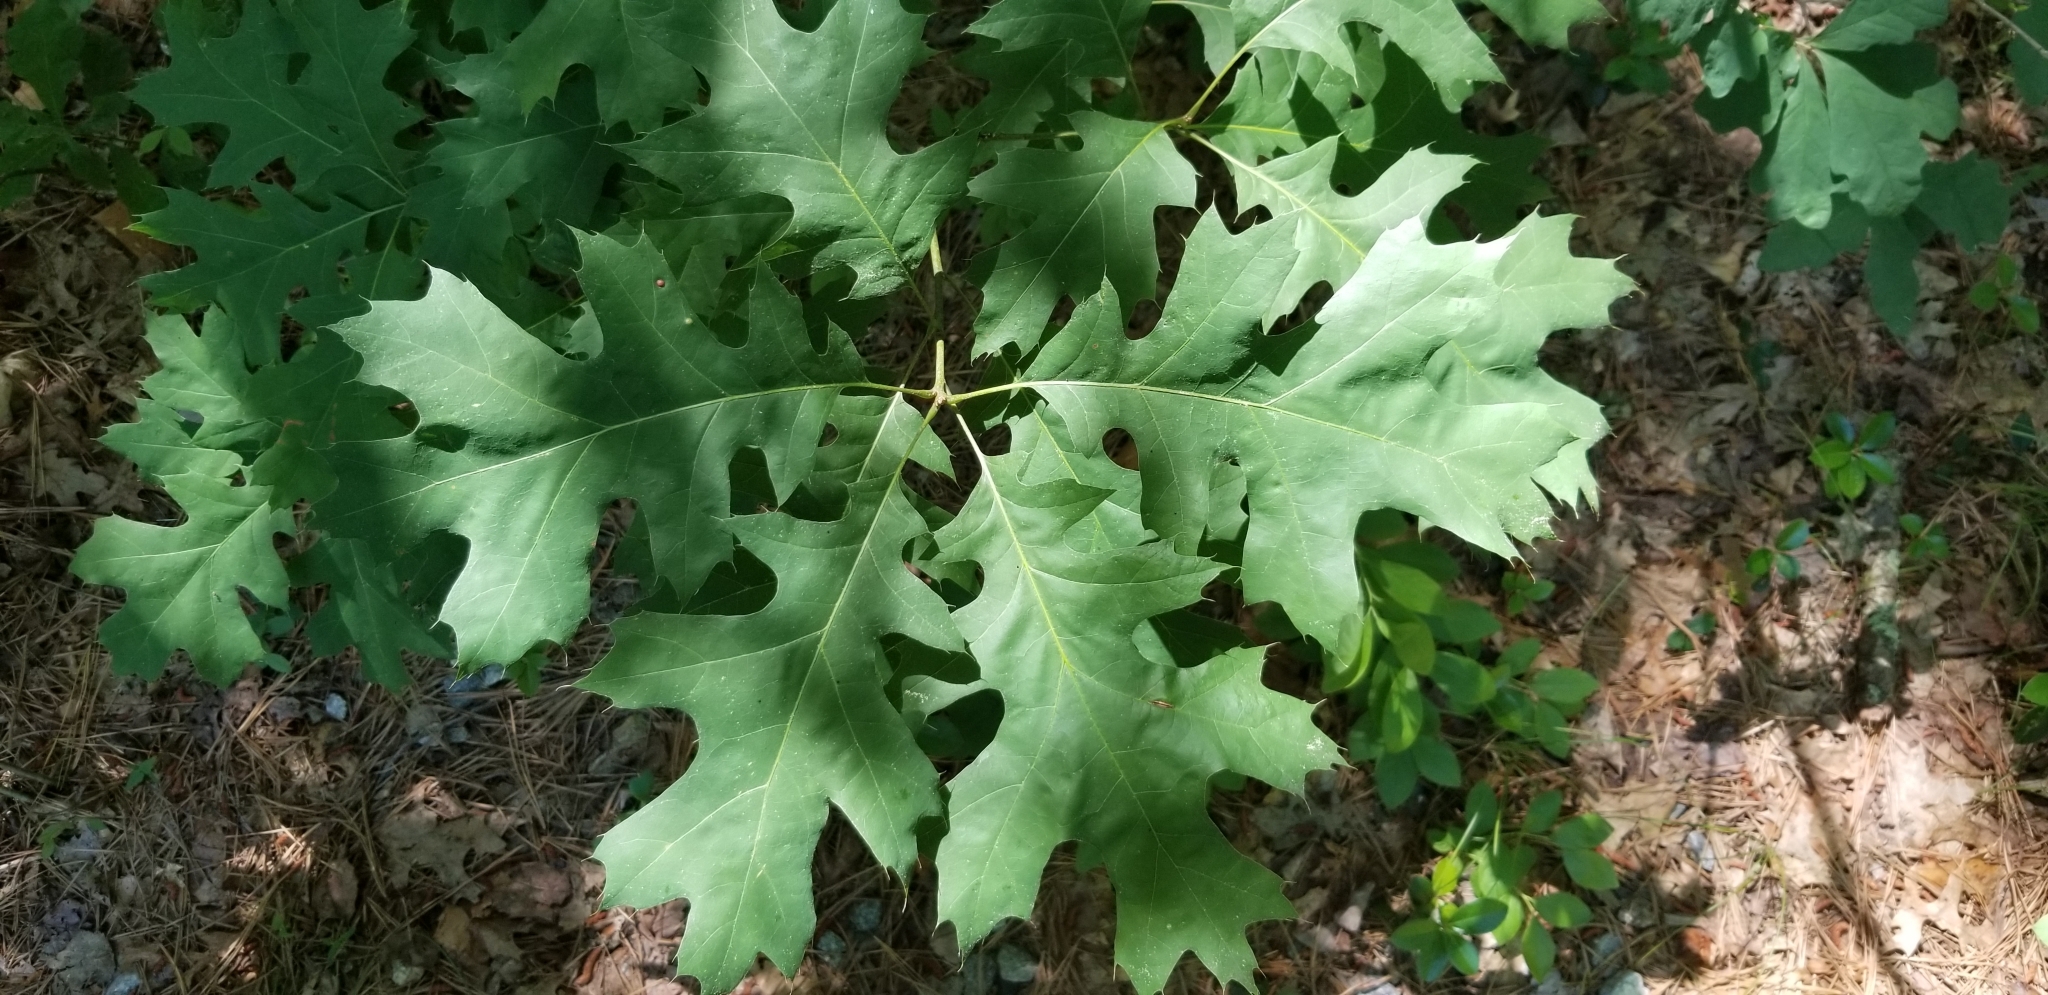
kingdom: Plantae
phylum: Tracheophyta
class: Magnoliopsida
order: Fagales
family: Fagaceae
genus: Quercus
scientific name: Quercus rubra
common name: Red oak
